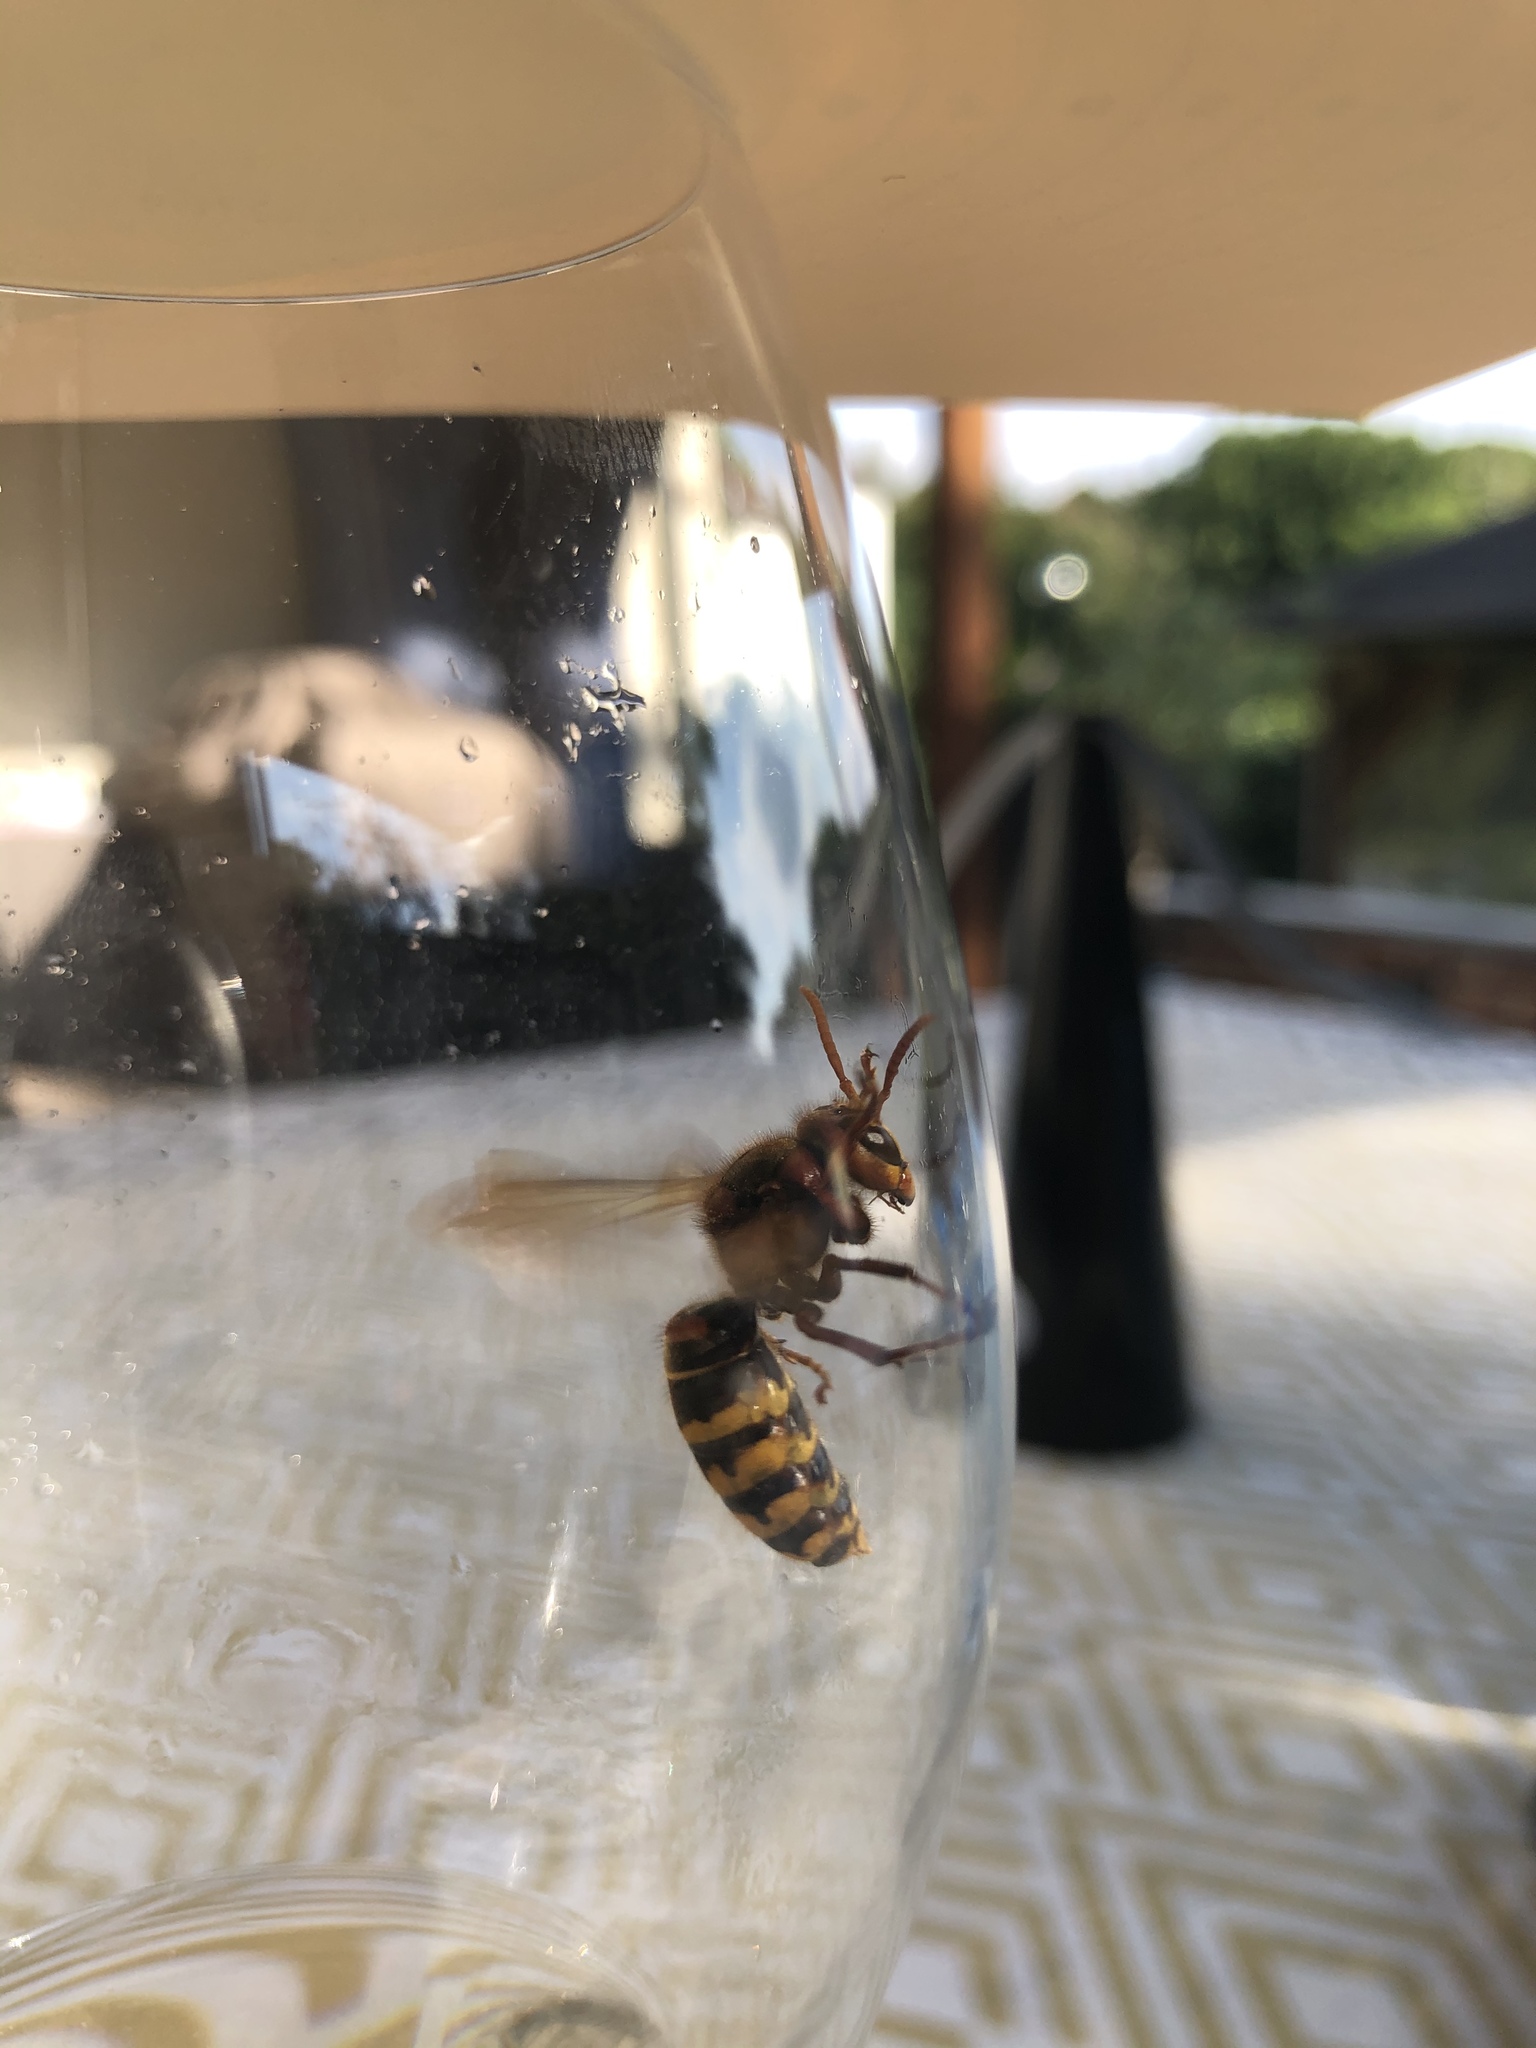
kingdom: Animalia
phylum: Arthropoda
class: Insecta
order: Hymenoptera
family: Vespidae
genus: Vespa
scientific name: Vespa crabro
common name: Hornet
